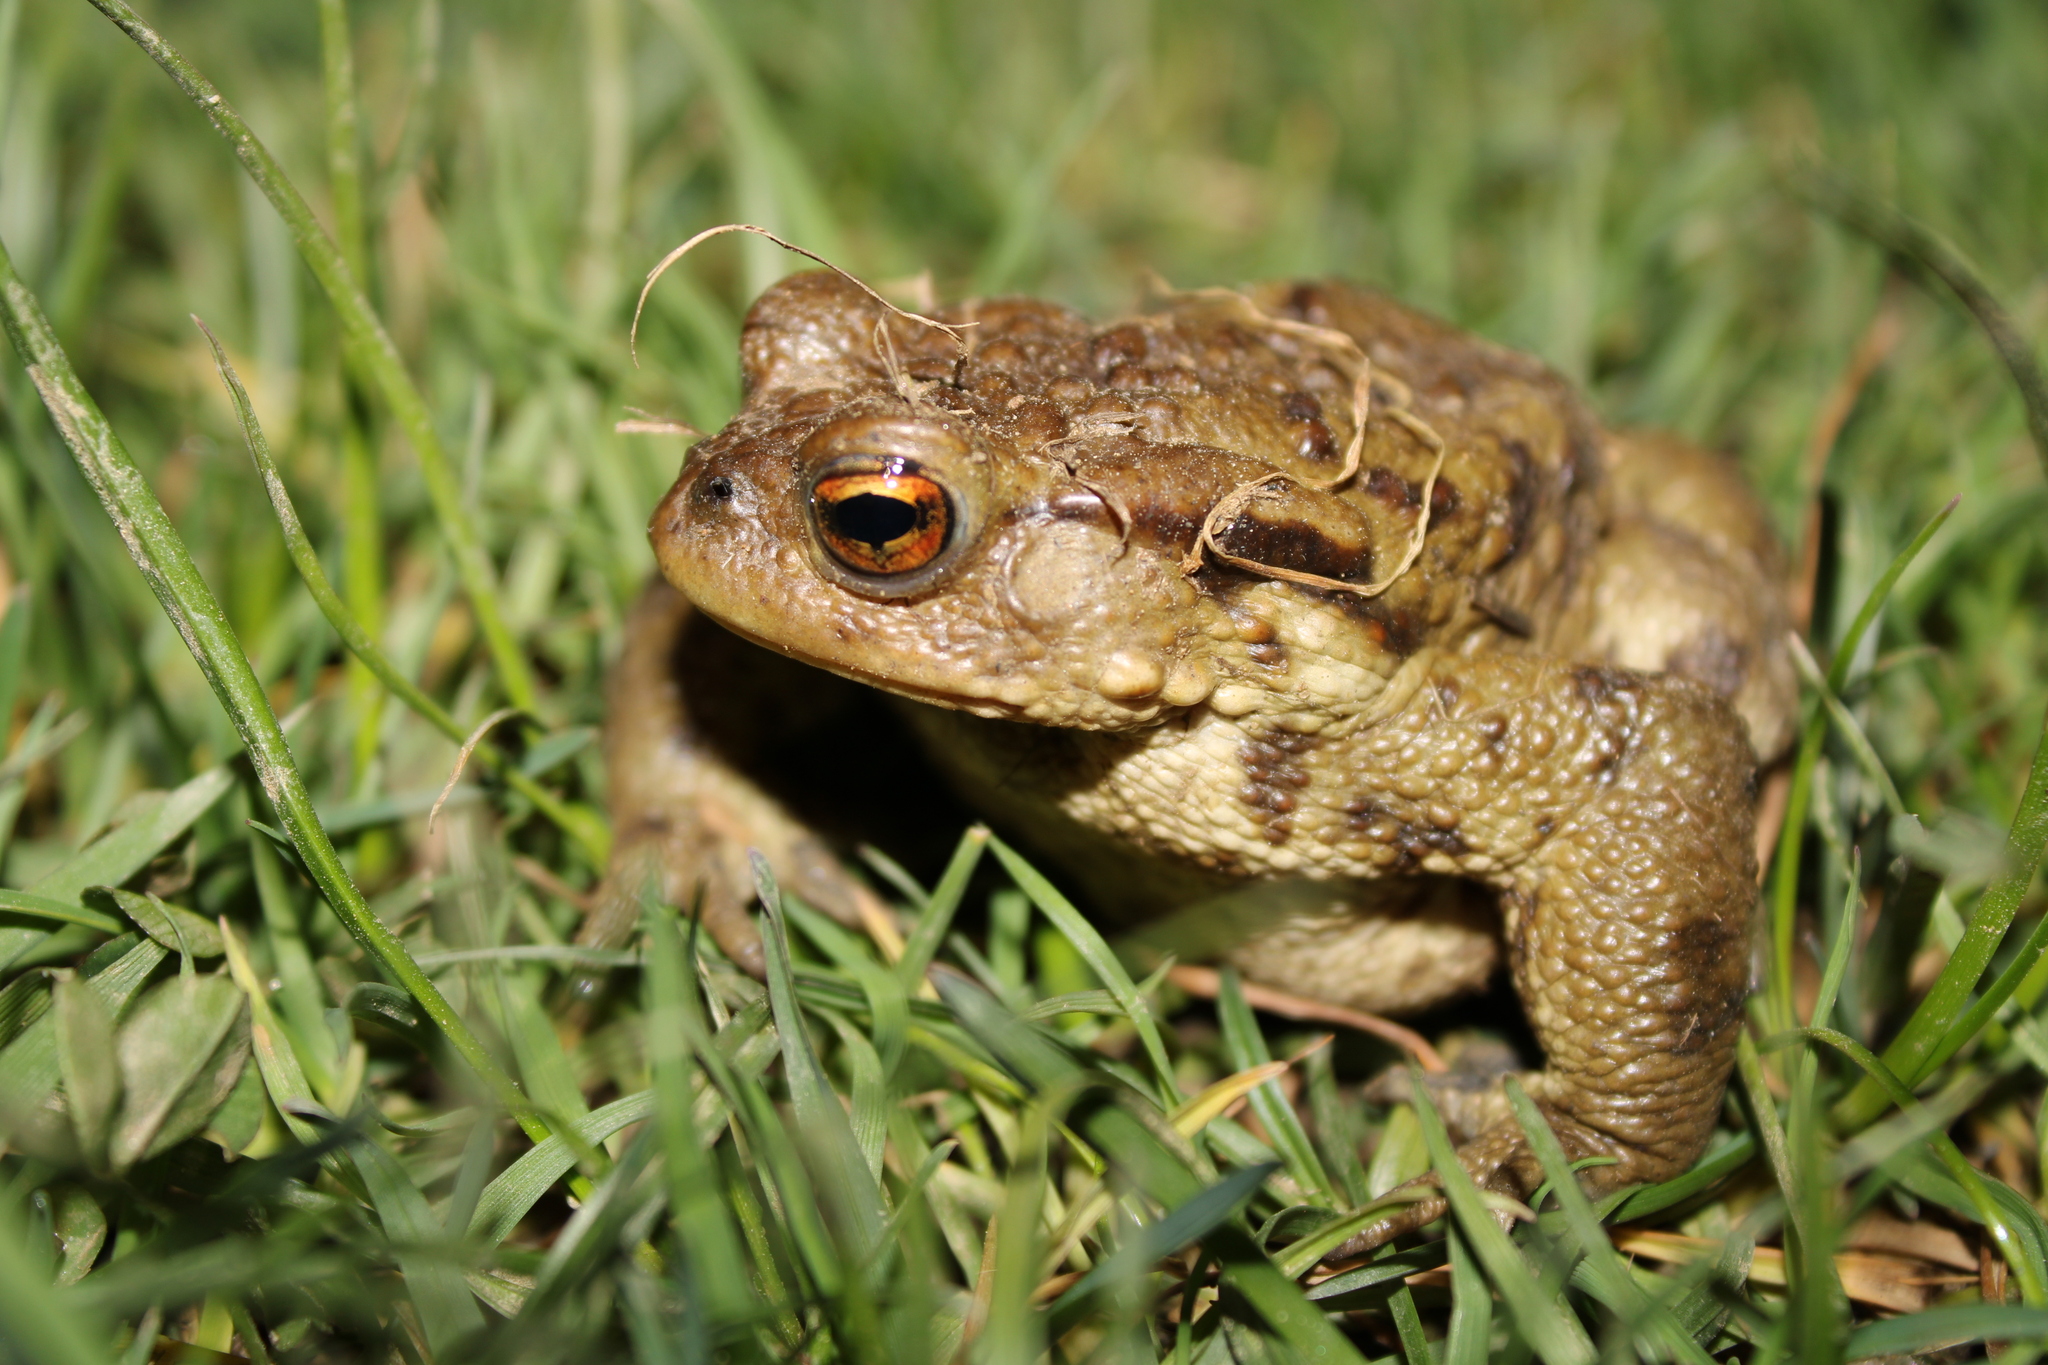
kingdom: Animalia
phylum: Chordata
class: Amphibia
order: Anura
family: Bufonidae
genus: Bufo
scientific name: Bufo bufo
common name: Common toad
